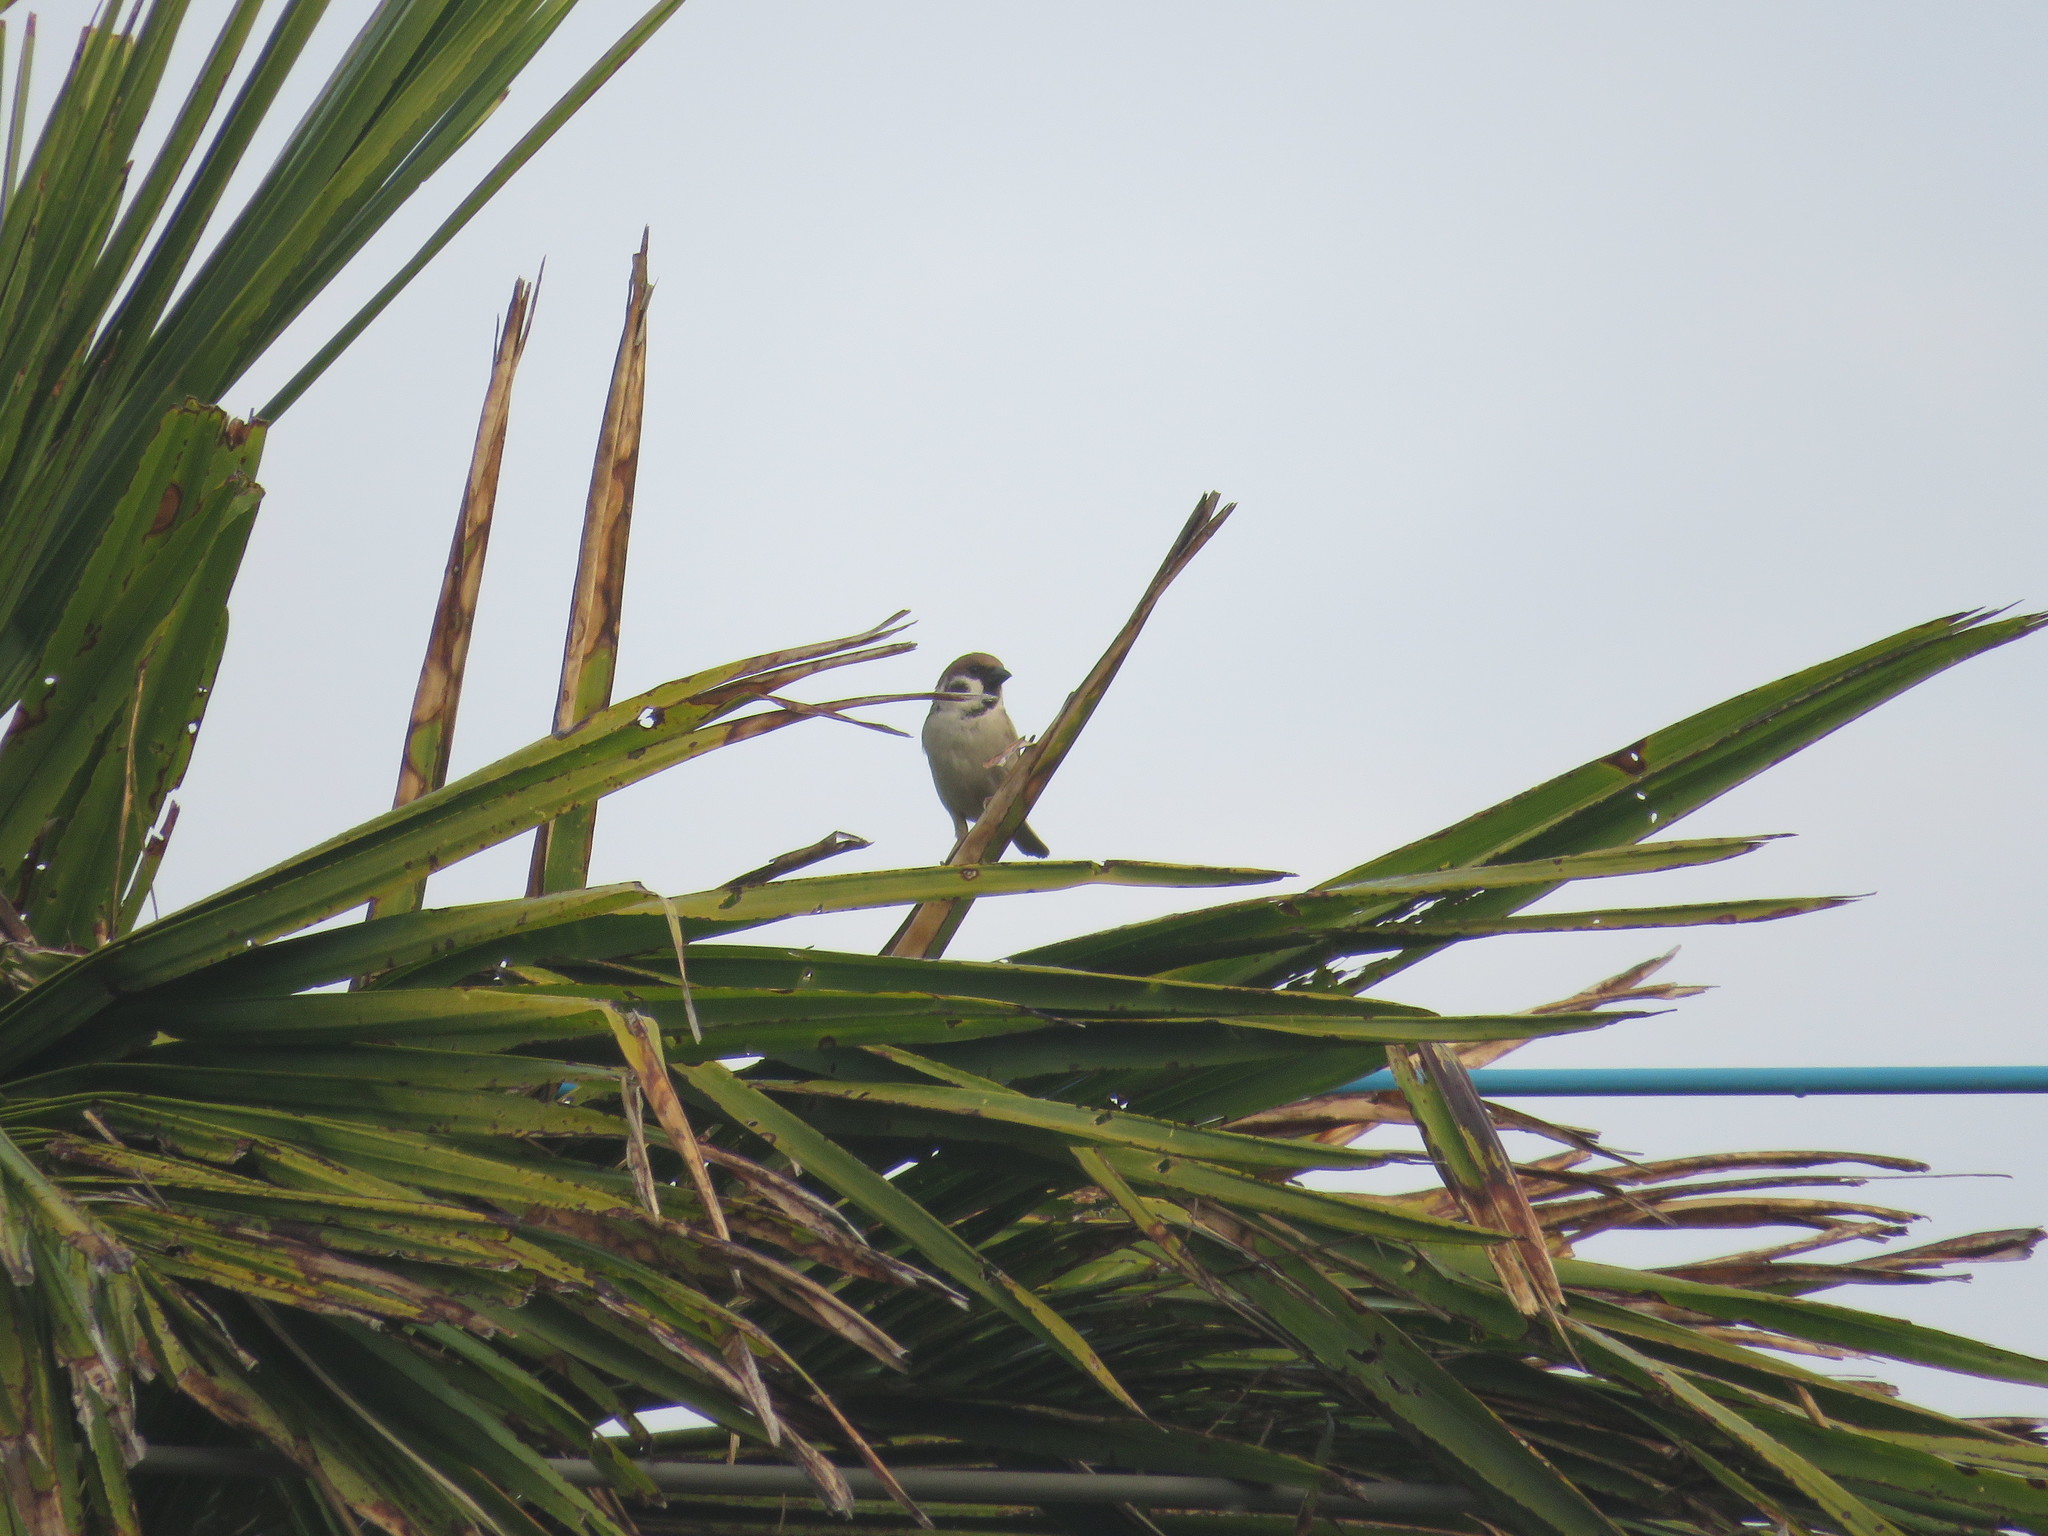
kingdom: Animalia
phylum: Chordata
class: Aves
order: Passeriformes
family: Passeridae
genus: Passer
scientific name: Passer montanus
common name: Eurasian tree sparrow
